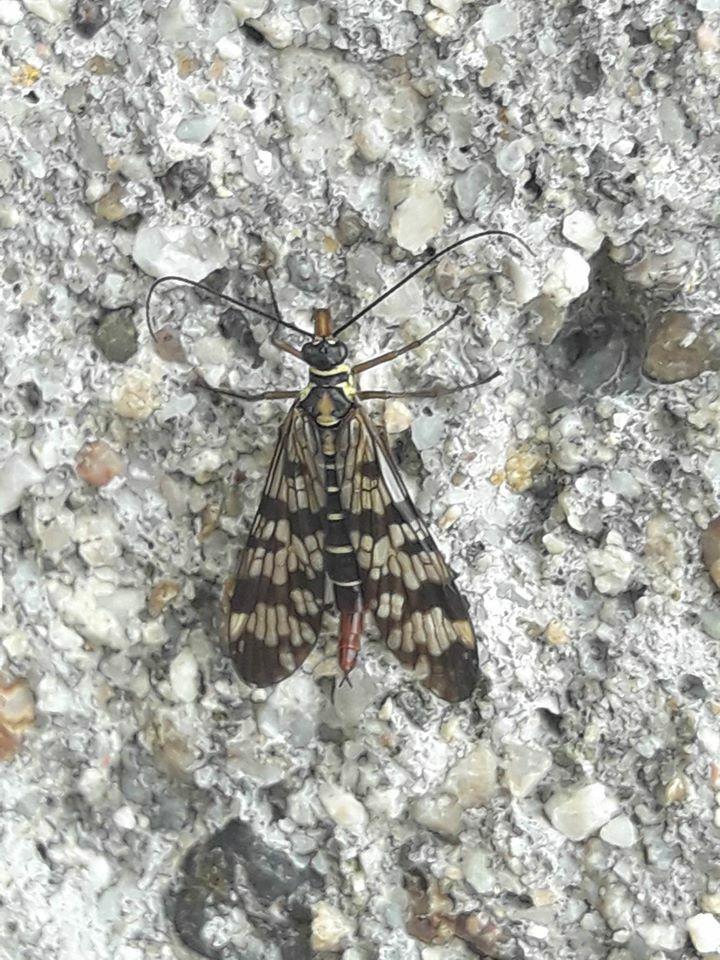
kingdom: Animalia
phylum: Arthropoda
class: Insecta
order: Mecoptera
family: Panorpidae
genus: Panorpa
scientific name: Panorpa communis
